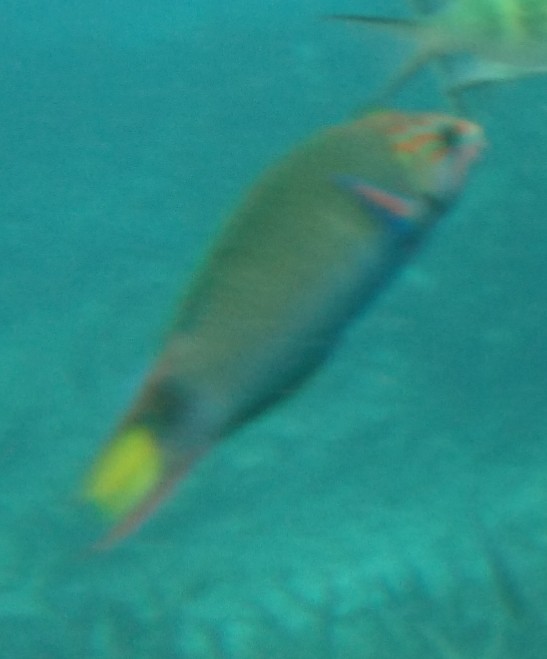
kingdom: Animalia
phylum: Chordata
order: Perciformes
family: Labridae
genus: Thalassoma
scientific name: Thalassoma lunare
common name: Blue wrasse
